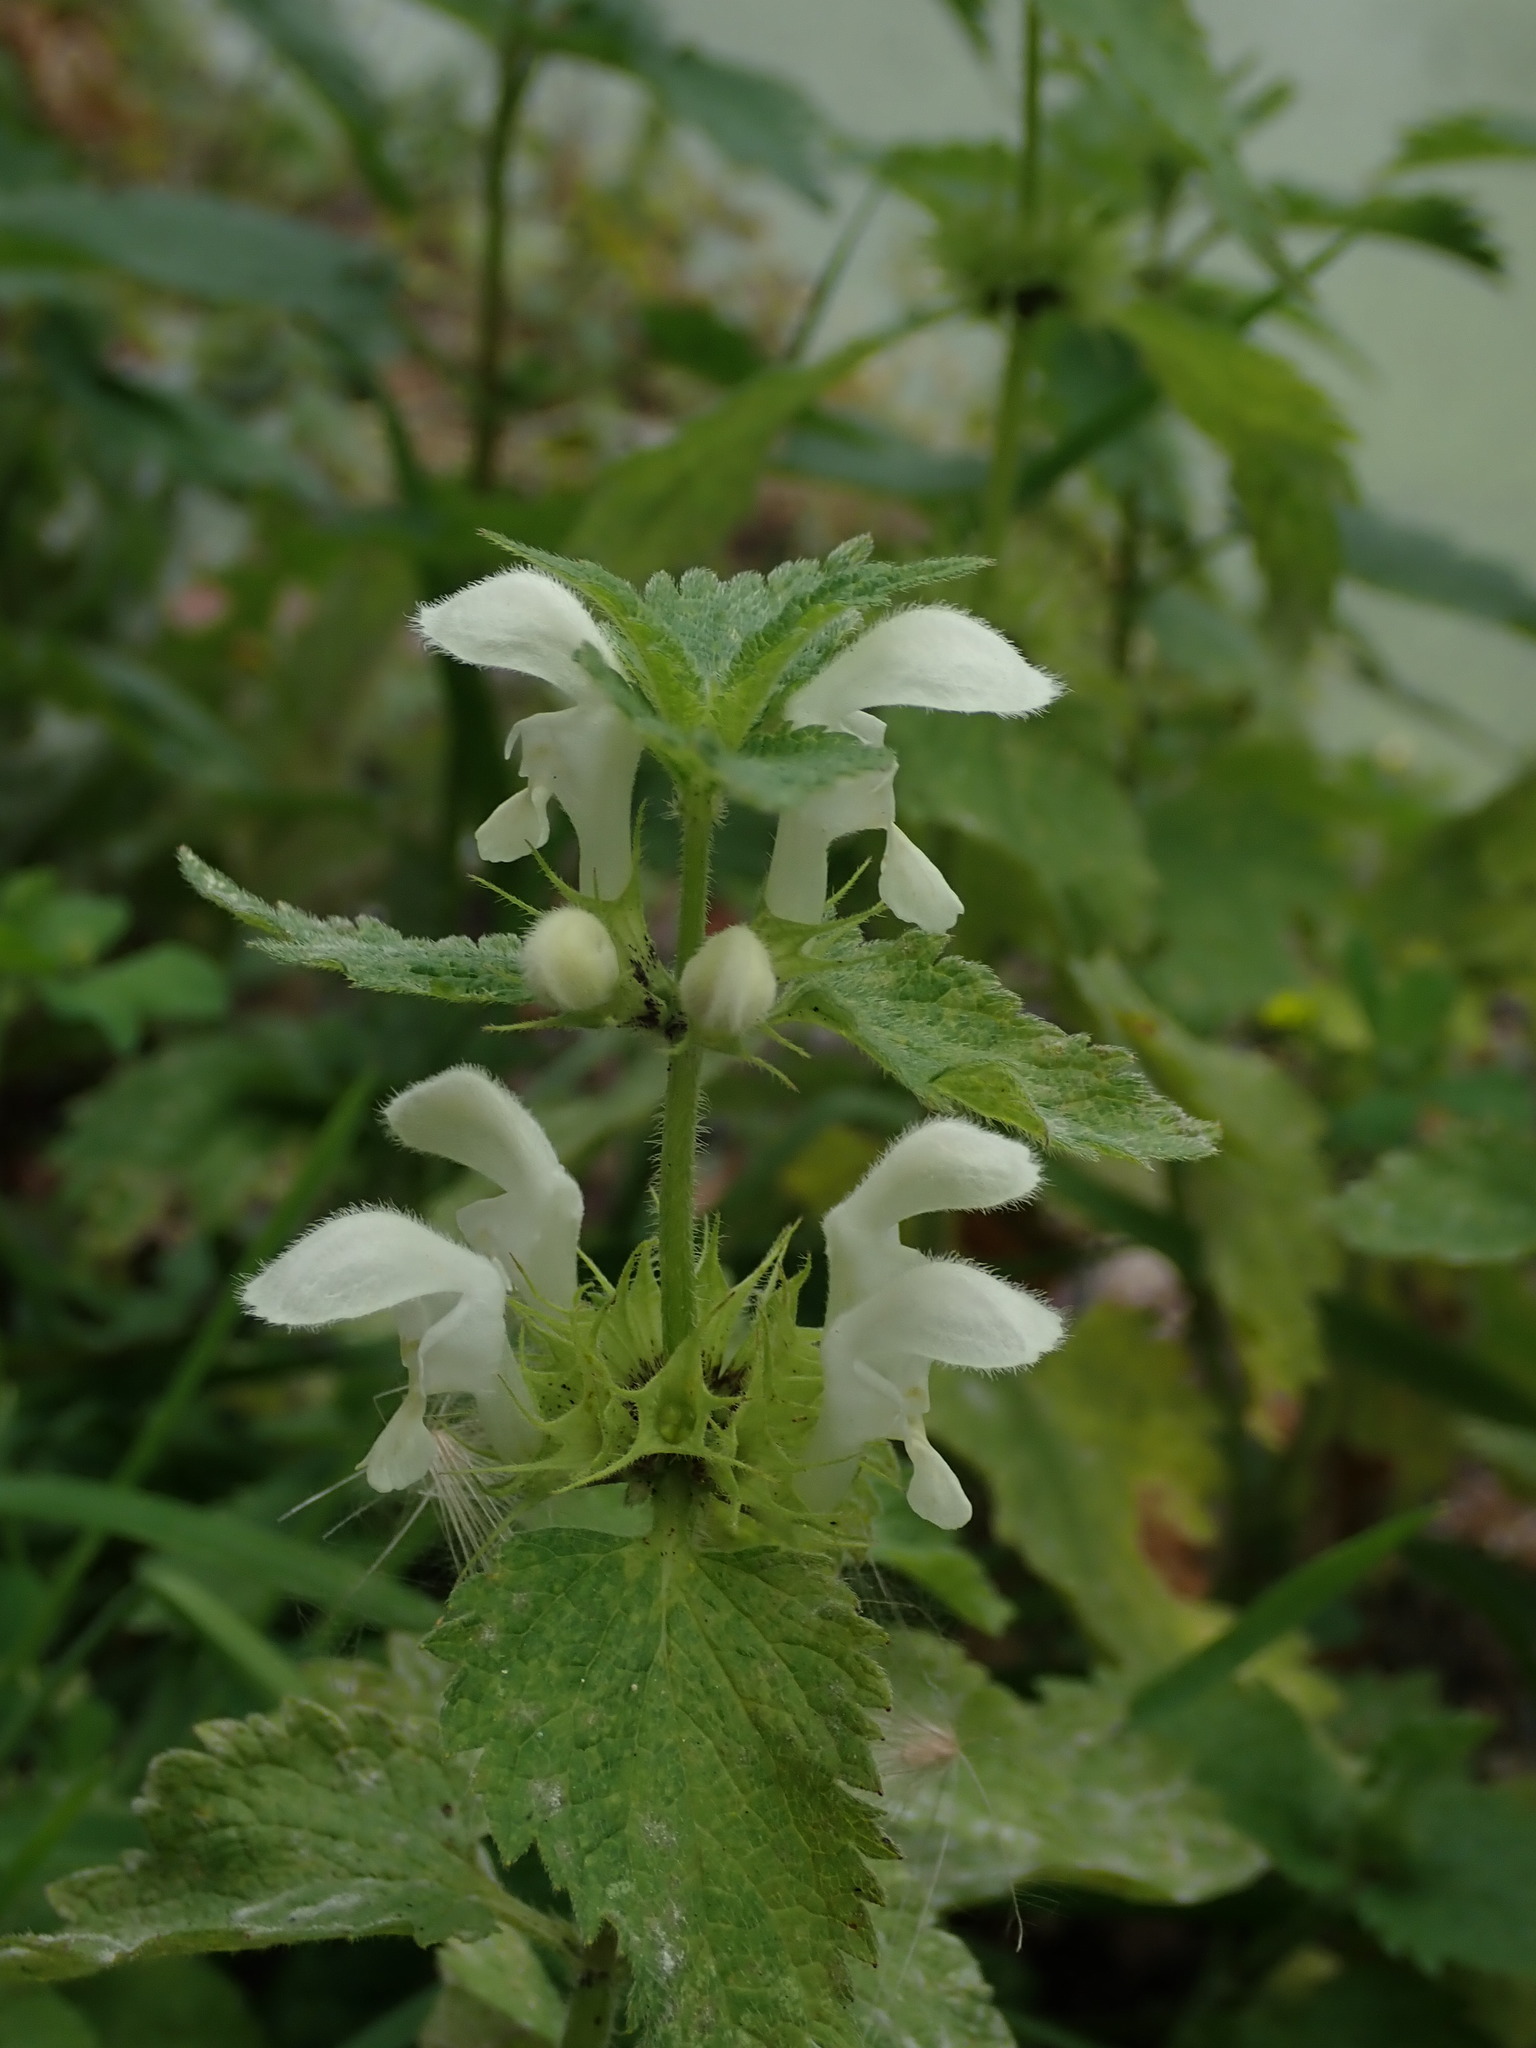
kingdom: Plantae
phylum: Tracheophyta
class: Magnoliopsida
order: Lamiales
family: Lamiaceae
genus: Lamium
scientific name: Lamium album
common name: White dead-nettle
